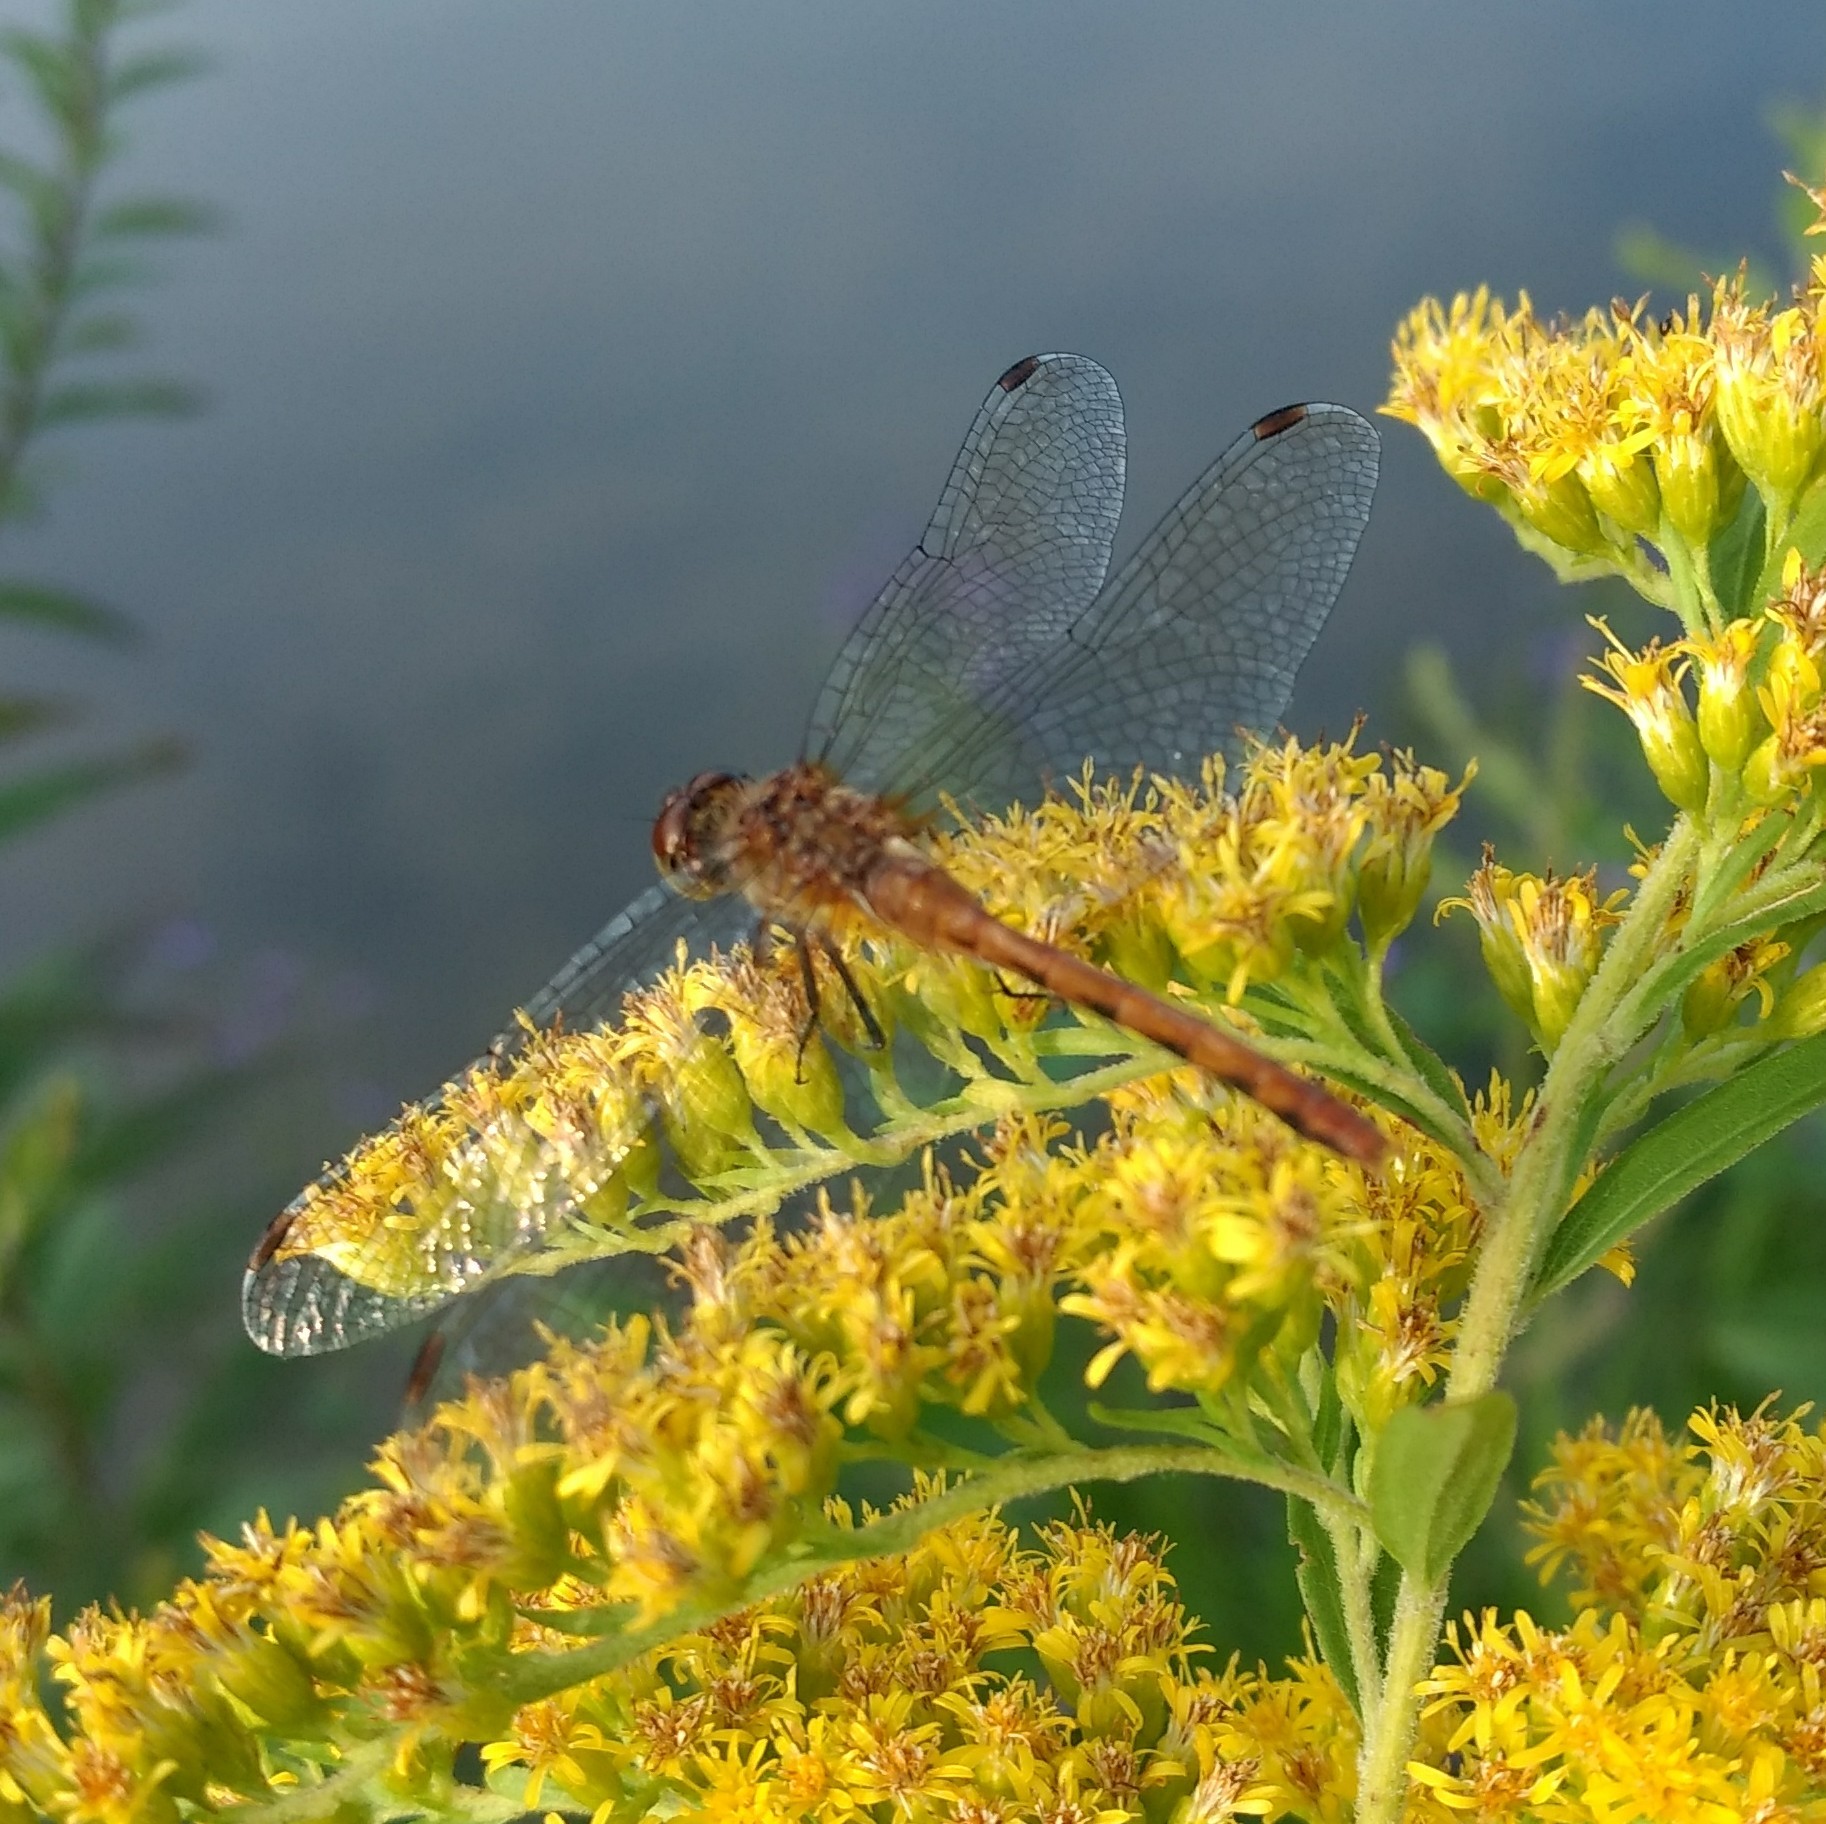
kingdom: Animalia
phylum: Arthropoda
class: Insecta
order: Odonata
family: Libellulidae
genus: Sympetrum
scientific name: Sympetrum
